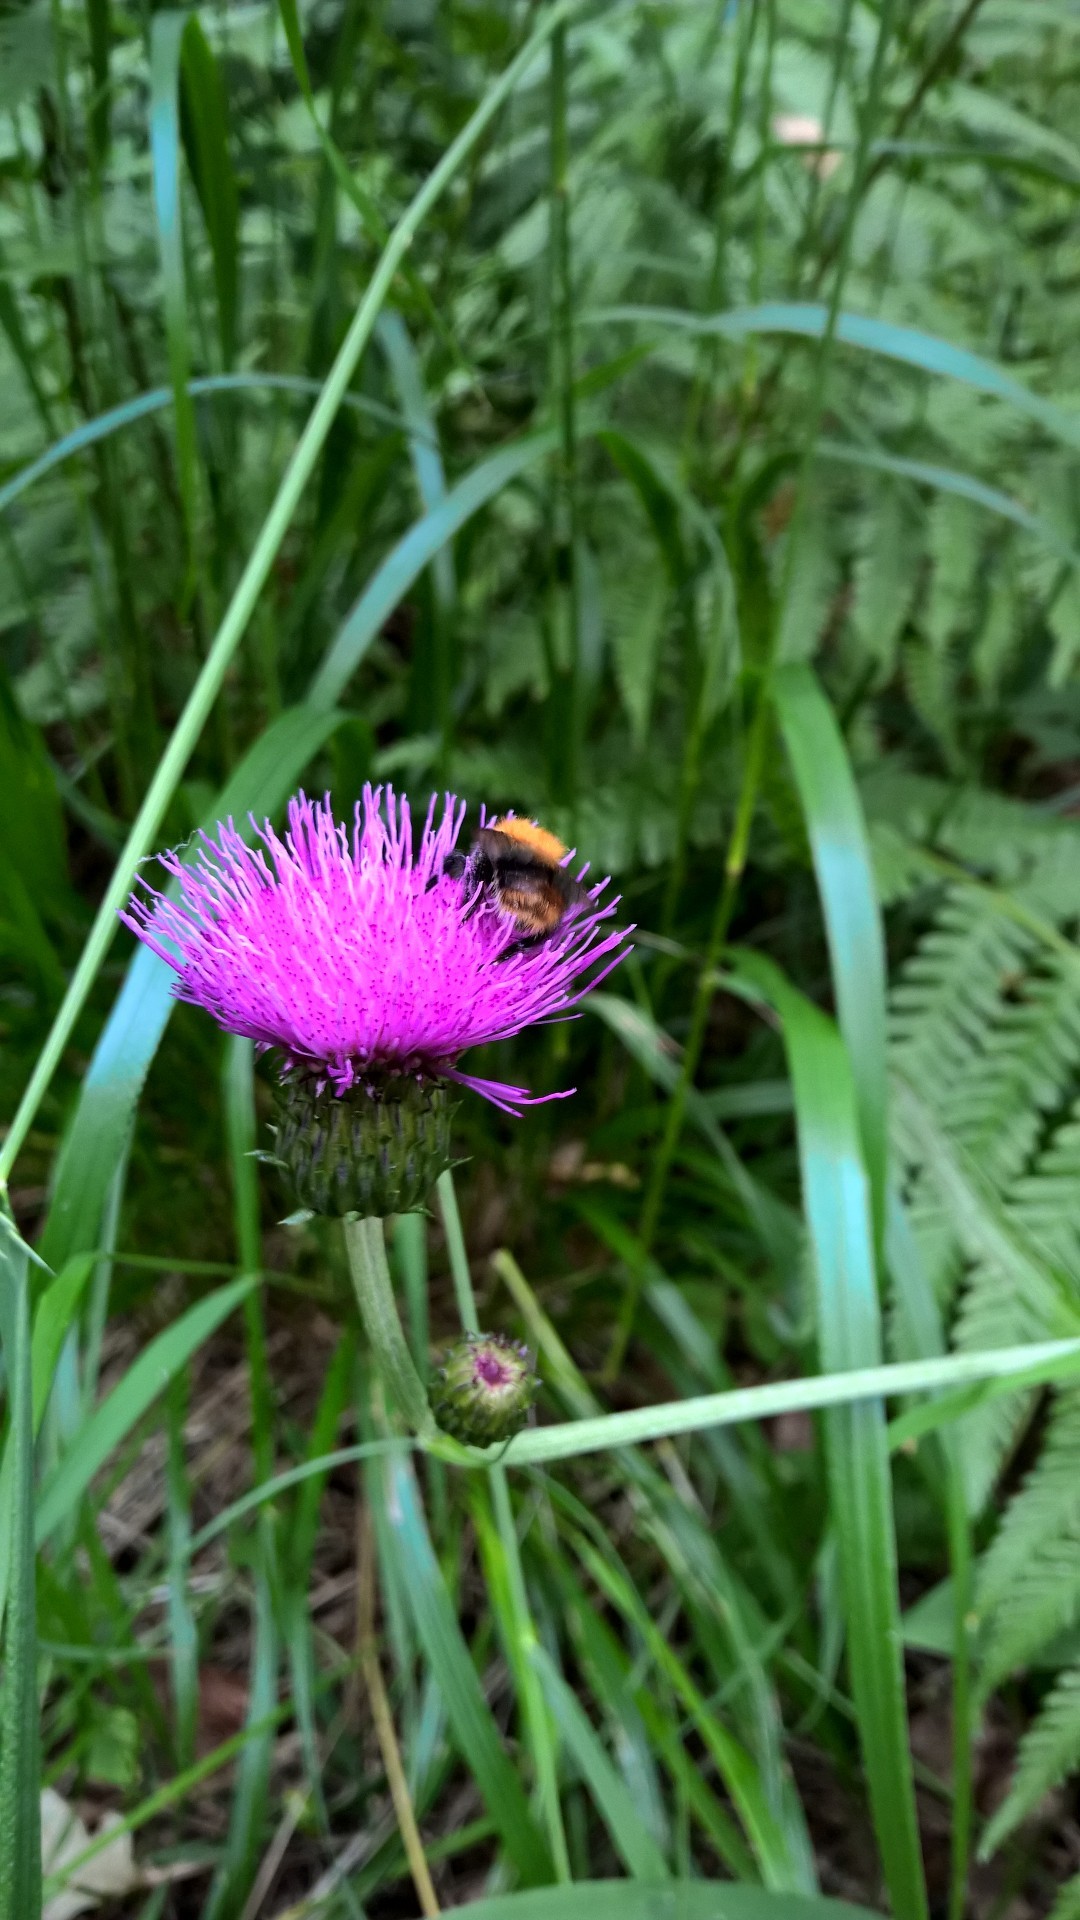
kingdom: Plantae
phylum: Tracheophyta
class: Magnoliopsida
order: Asterales
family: Asteraceae
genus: Cirsium
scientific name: Cirsium heterophyllum
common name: Melancholy thistle
